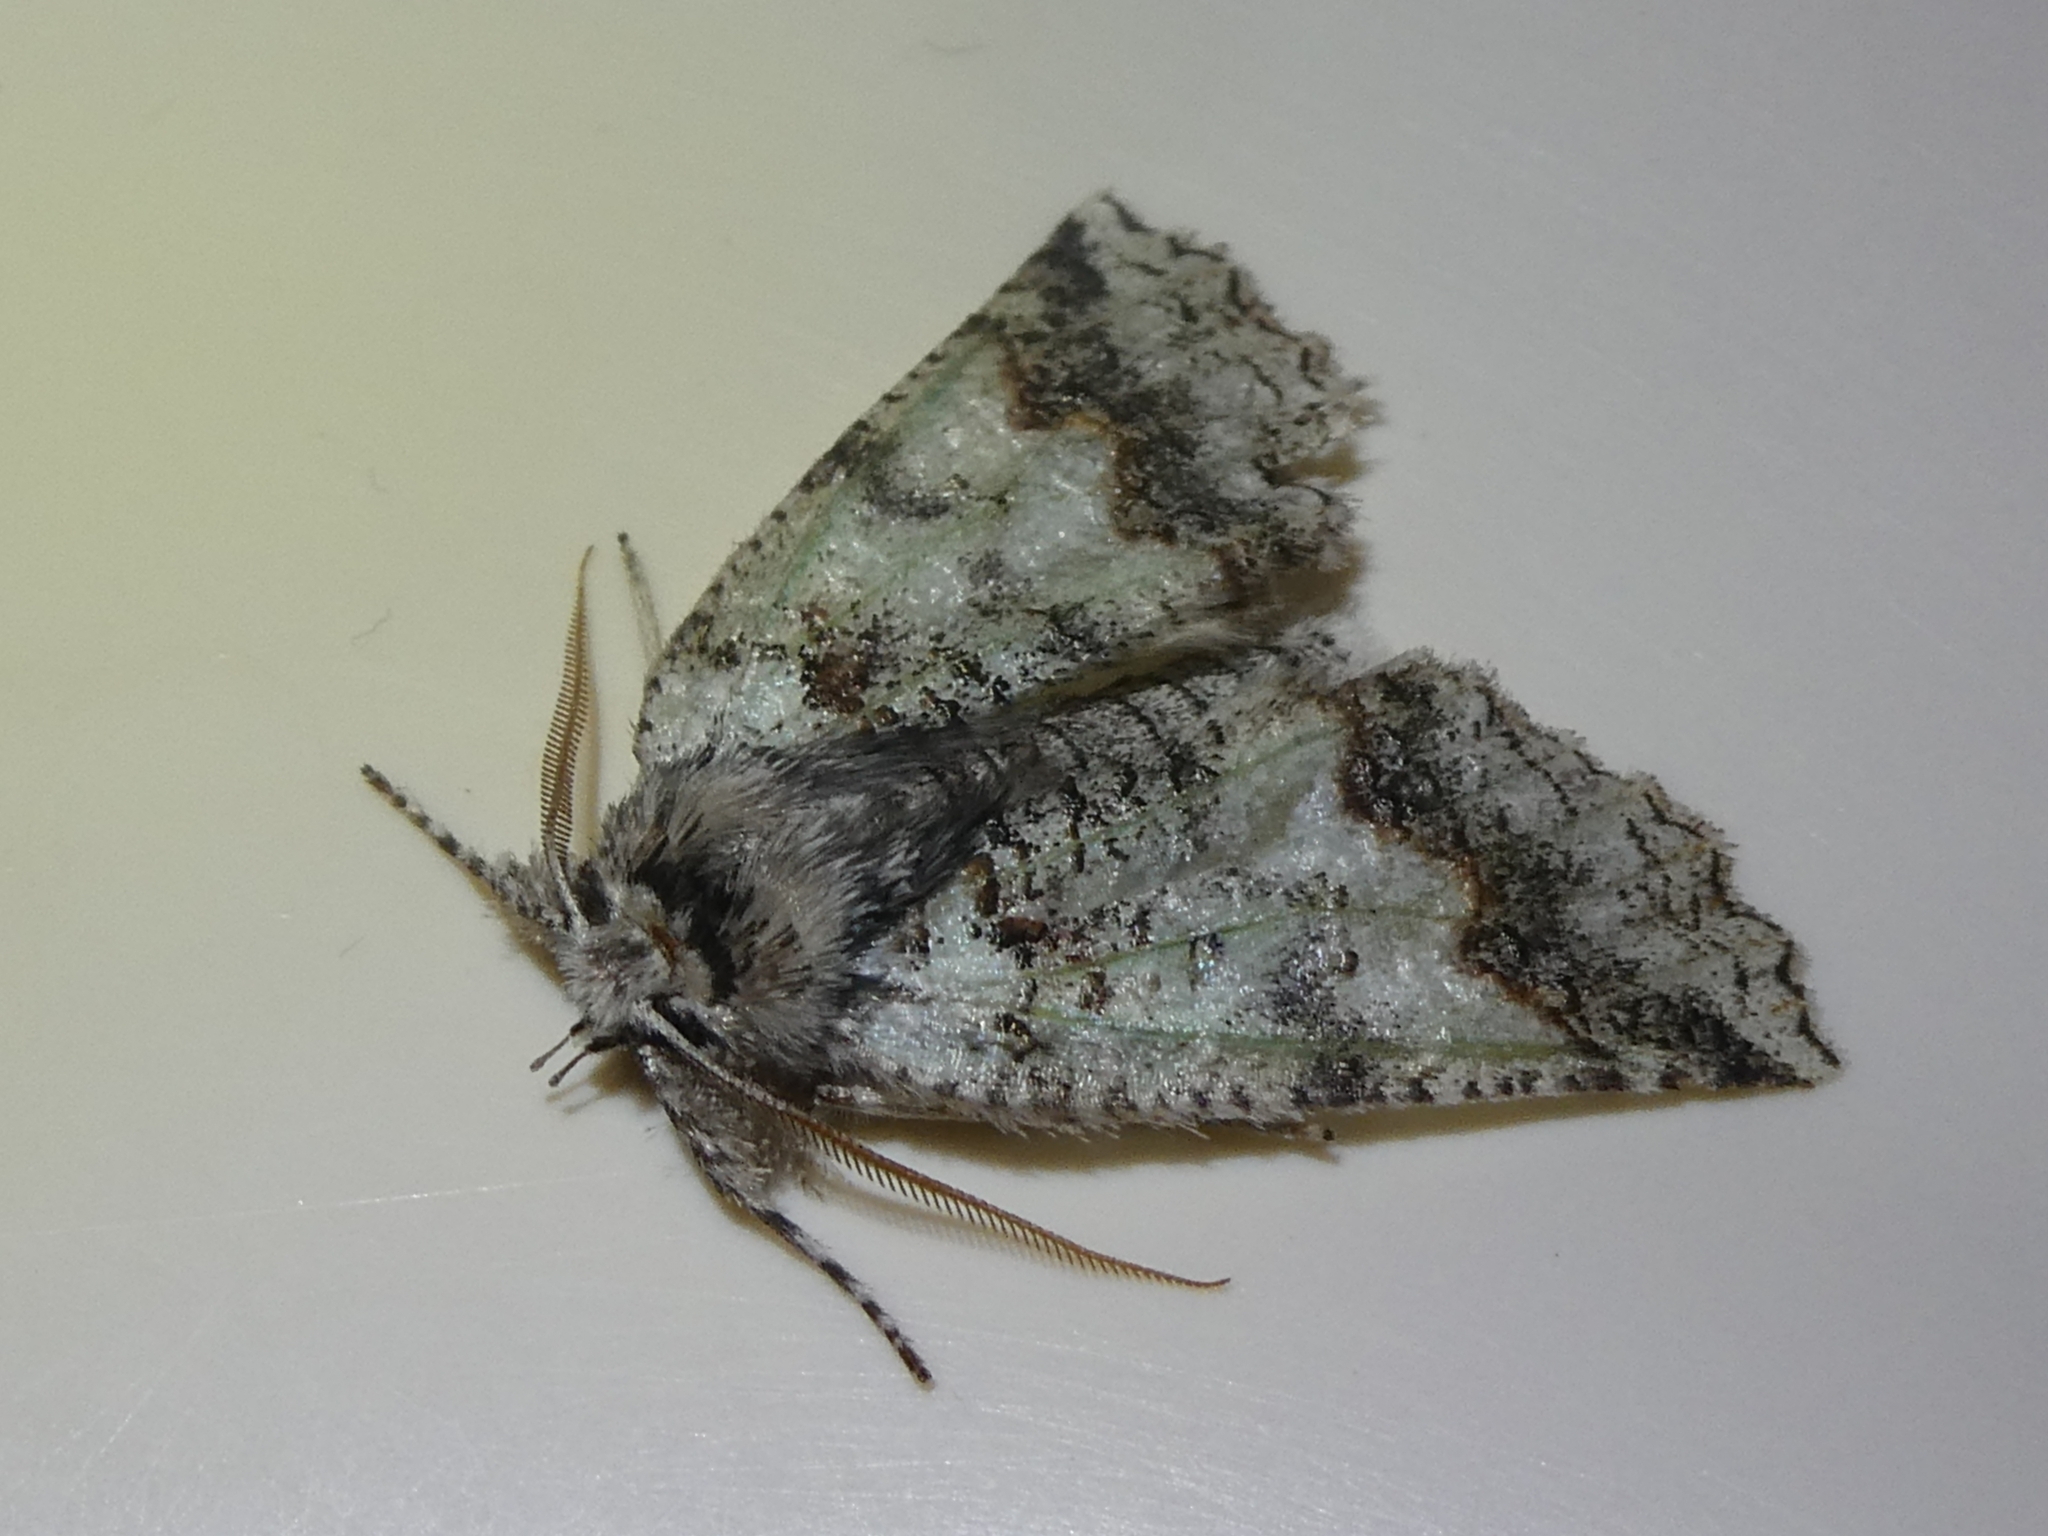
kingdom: Animalia
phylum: Arthropoda
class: Insecta
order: Lepidoptera
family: Geometridae
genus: Declana
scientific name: Declana floccosa
